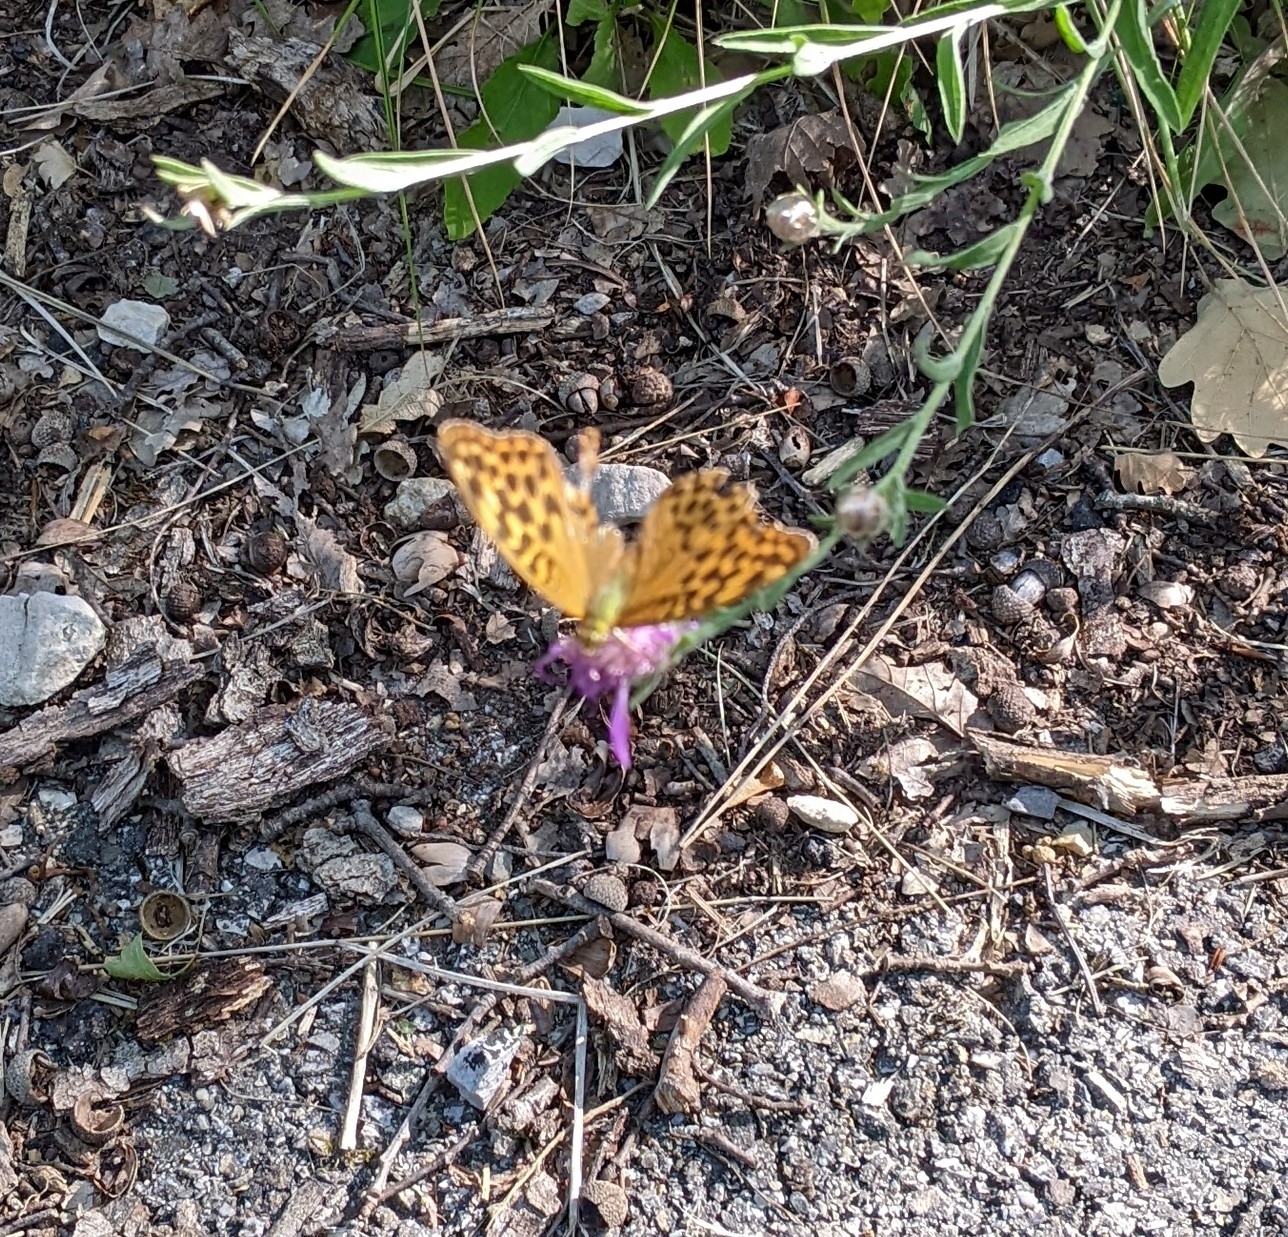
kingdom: Animalia
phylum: Arthropoda
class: Insecta
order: Lepidoptera
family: Nymphalidae
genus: Argynnis
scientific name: Argynnis paphia
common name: Silver-washed fritillary
